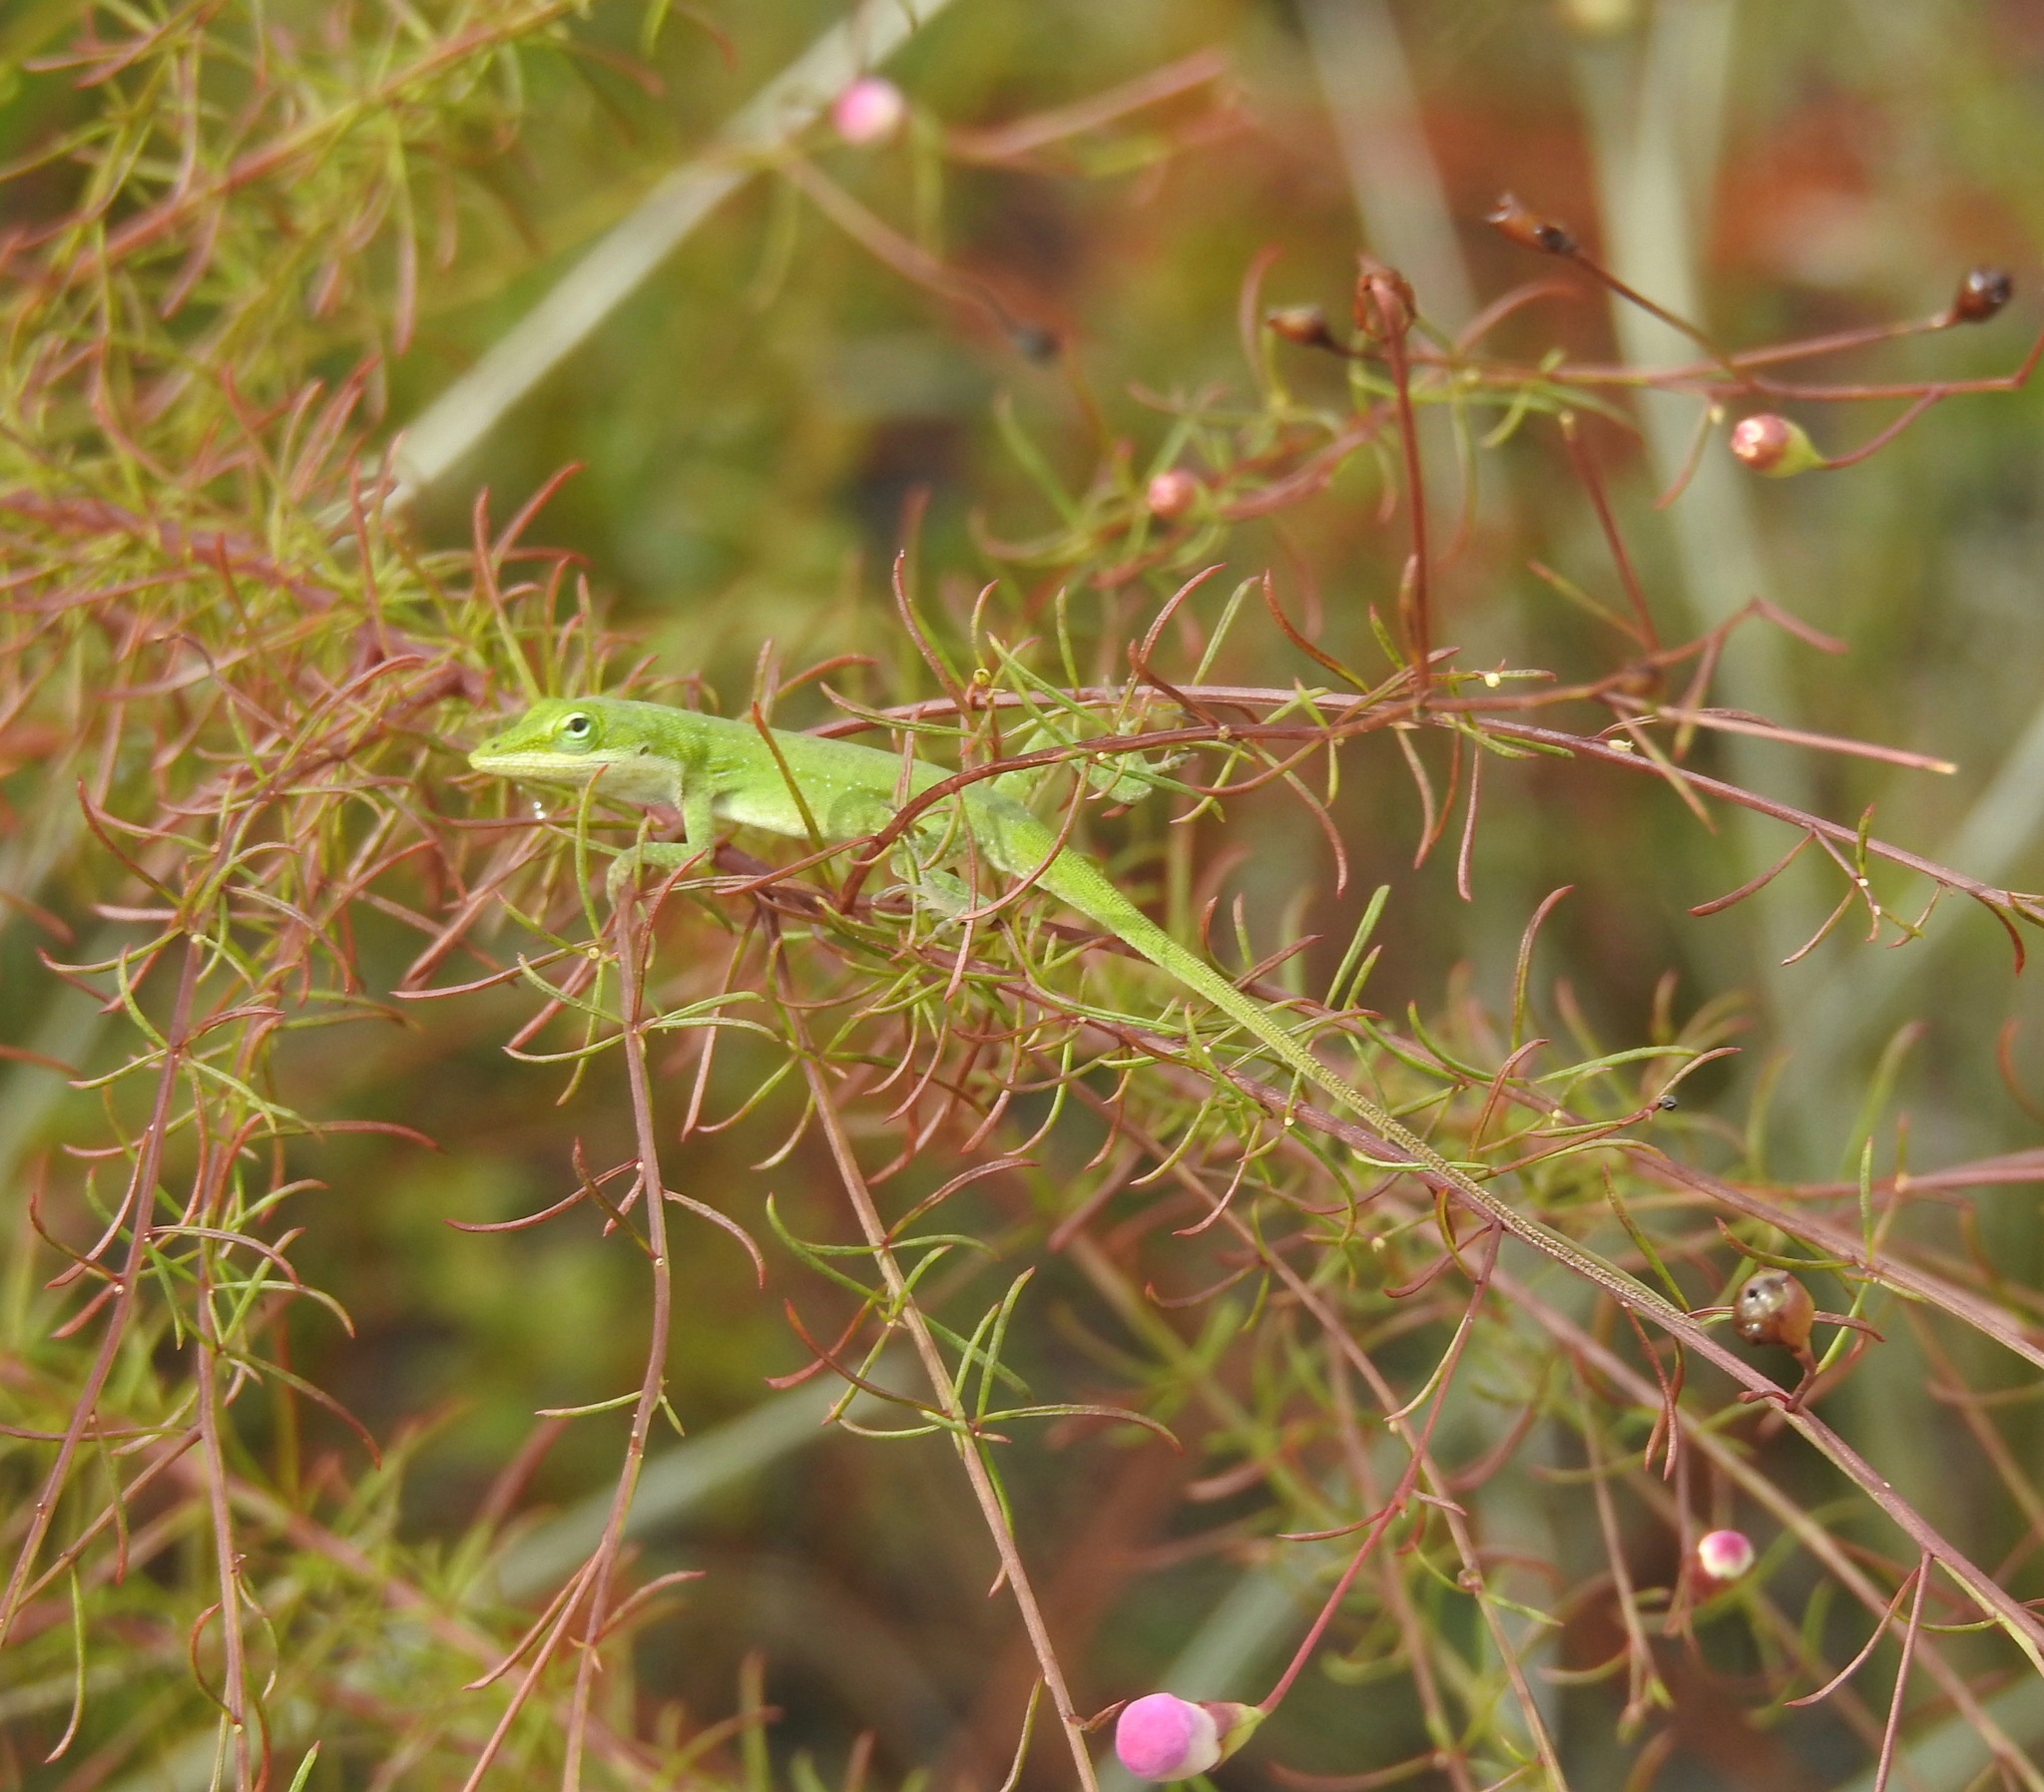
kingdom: Animalia
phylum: Chordata
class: Squamata
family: Dactyloidae
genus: Anolis
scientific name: Anolis carolinensis
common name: Green anole
